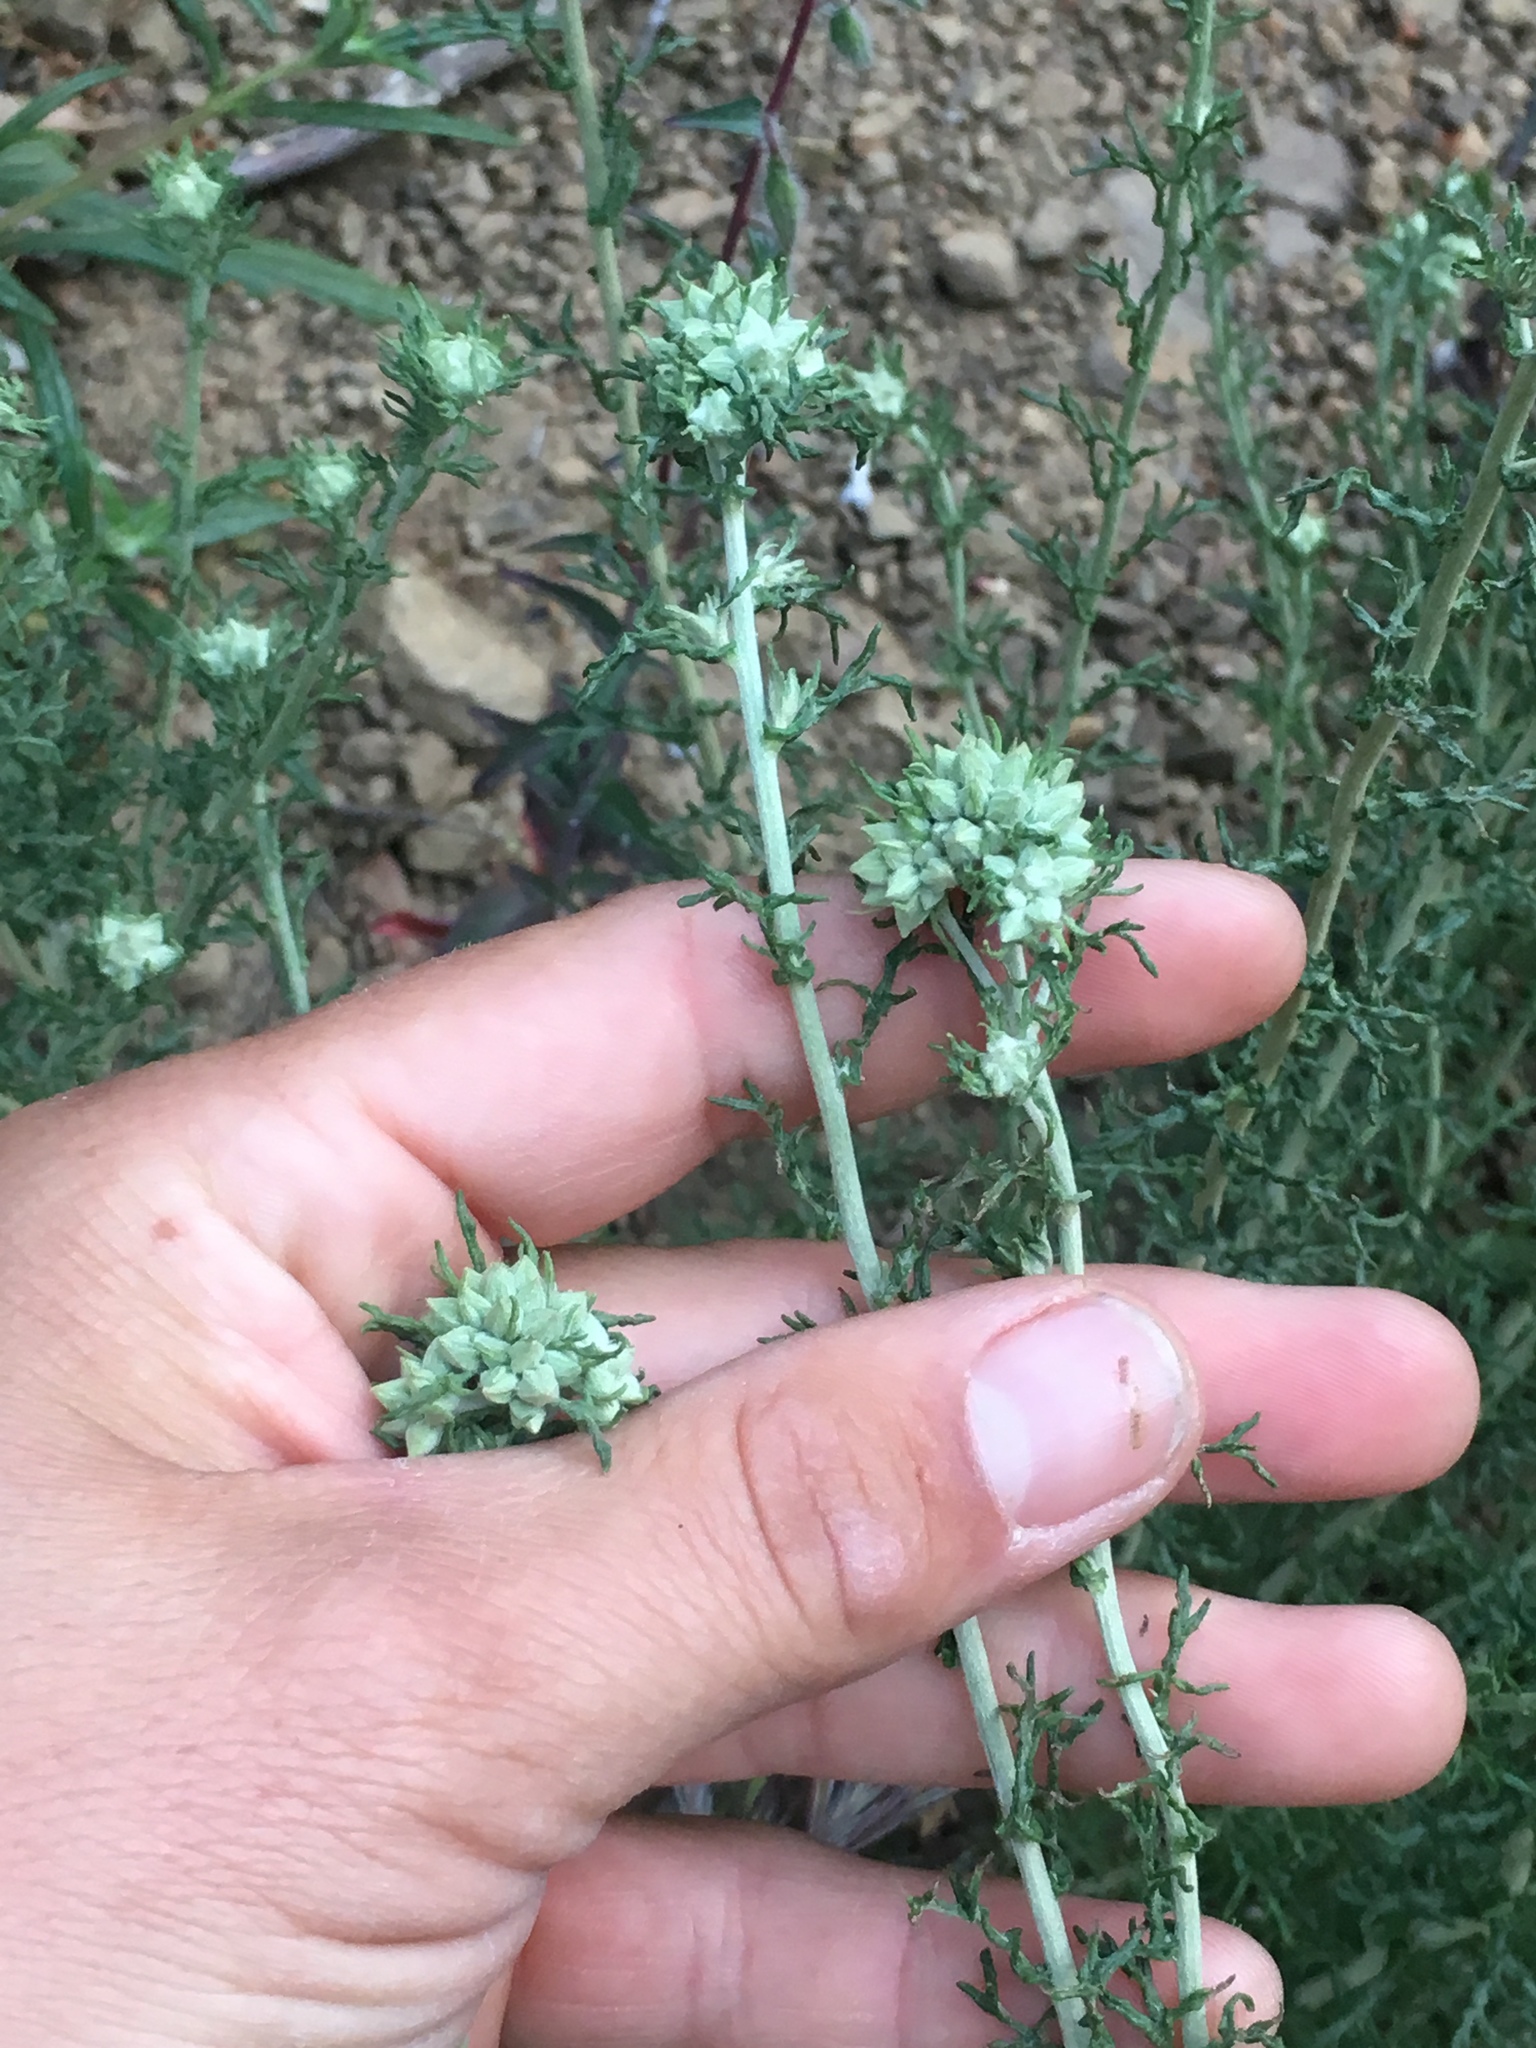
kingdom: Plantae
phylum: Tracheophyta
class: Magnoliopsida
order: Asterales
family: Asteraceae
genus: Eriophyllum
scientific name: Eriophyllum confertiflorum
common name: Golden-yarrow
